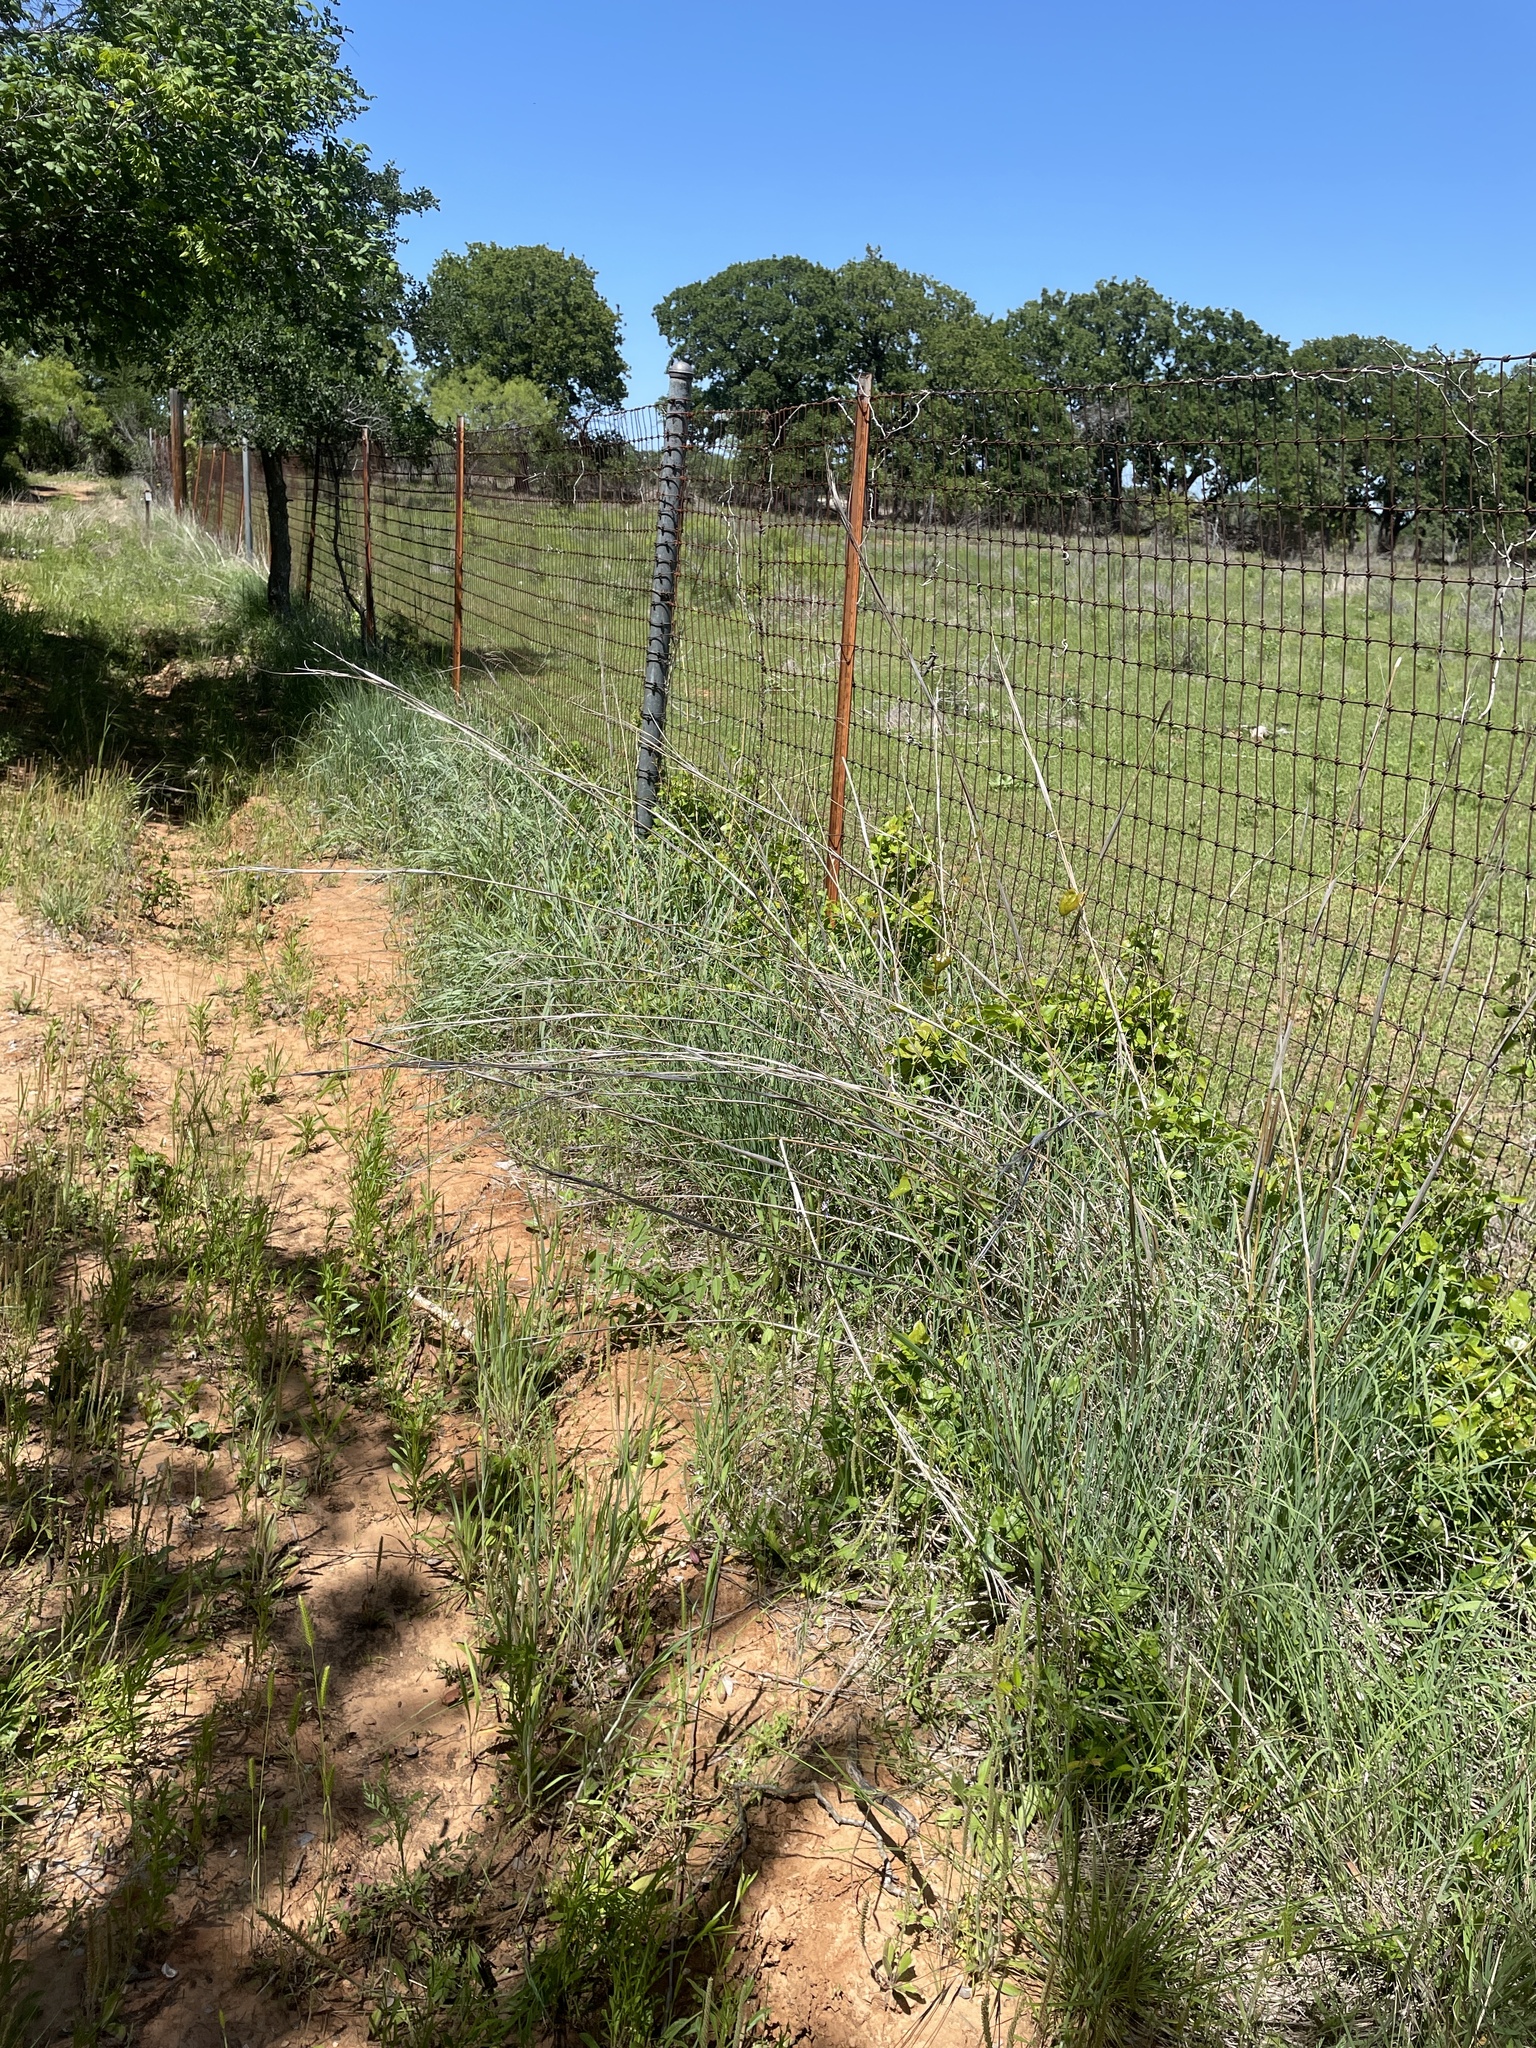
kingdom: Plantae
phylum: Tracheophyta
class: Liliopsida
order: Poales
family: Poaceae
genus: Andropogon
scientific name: Andropogon gerardi
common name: Big bluestem
